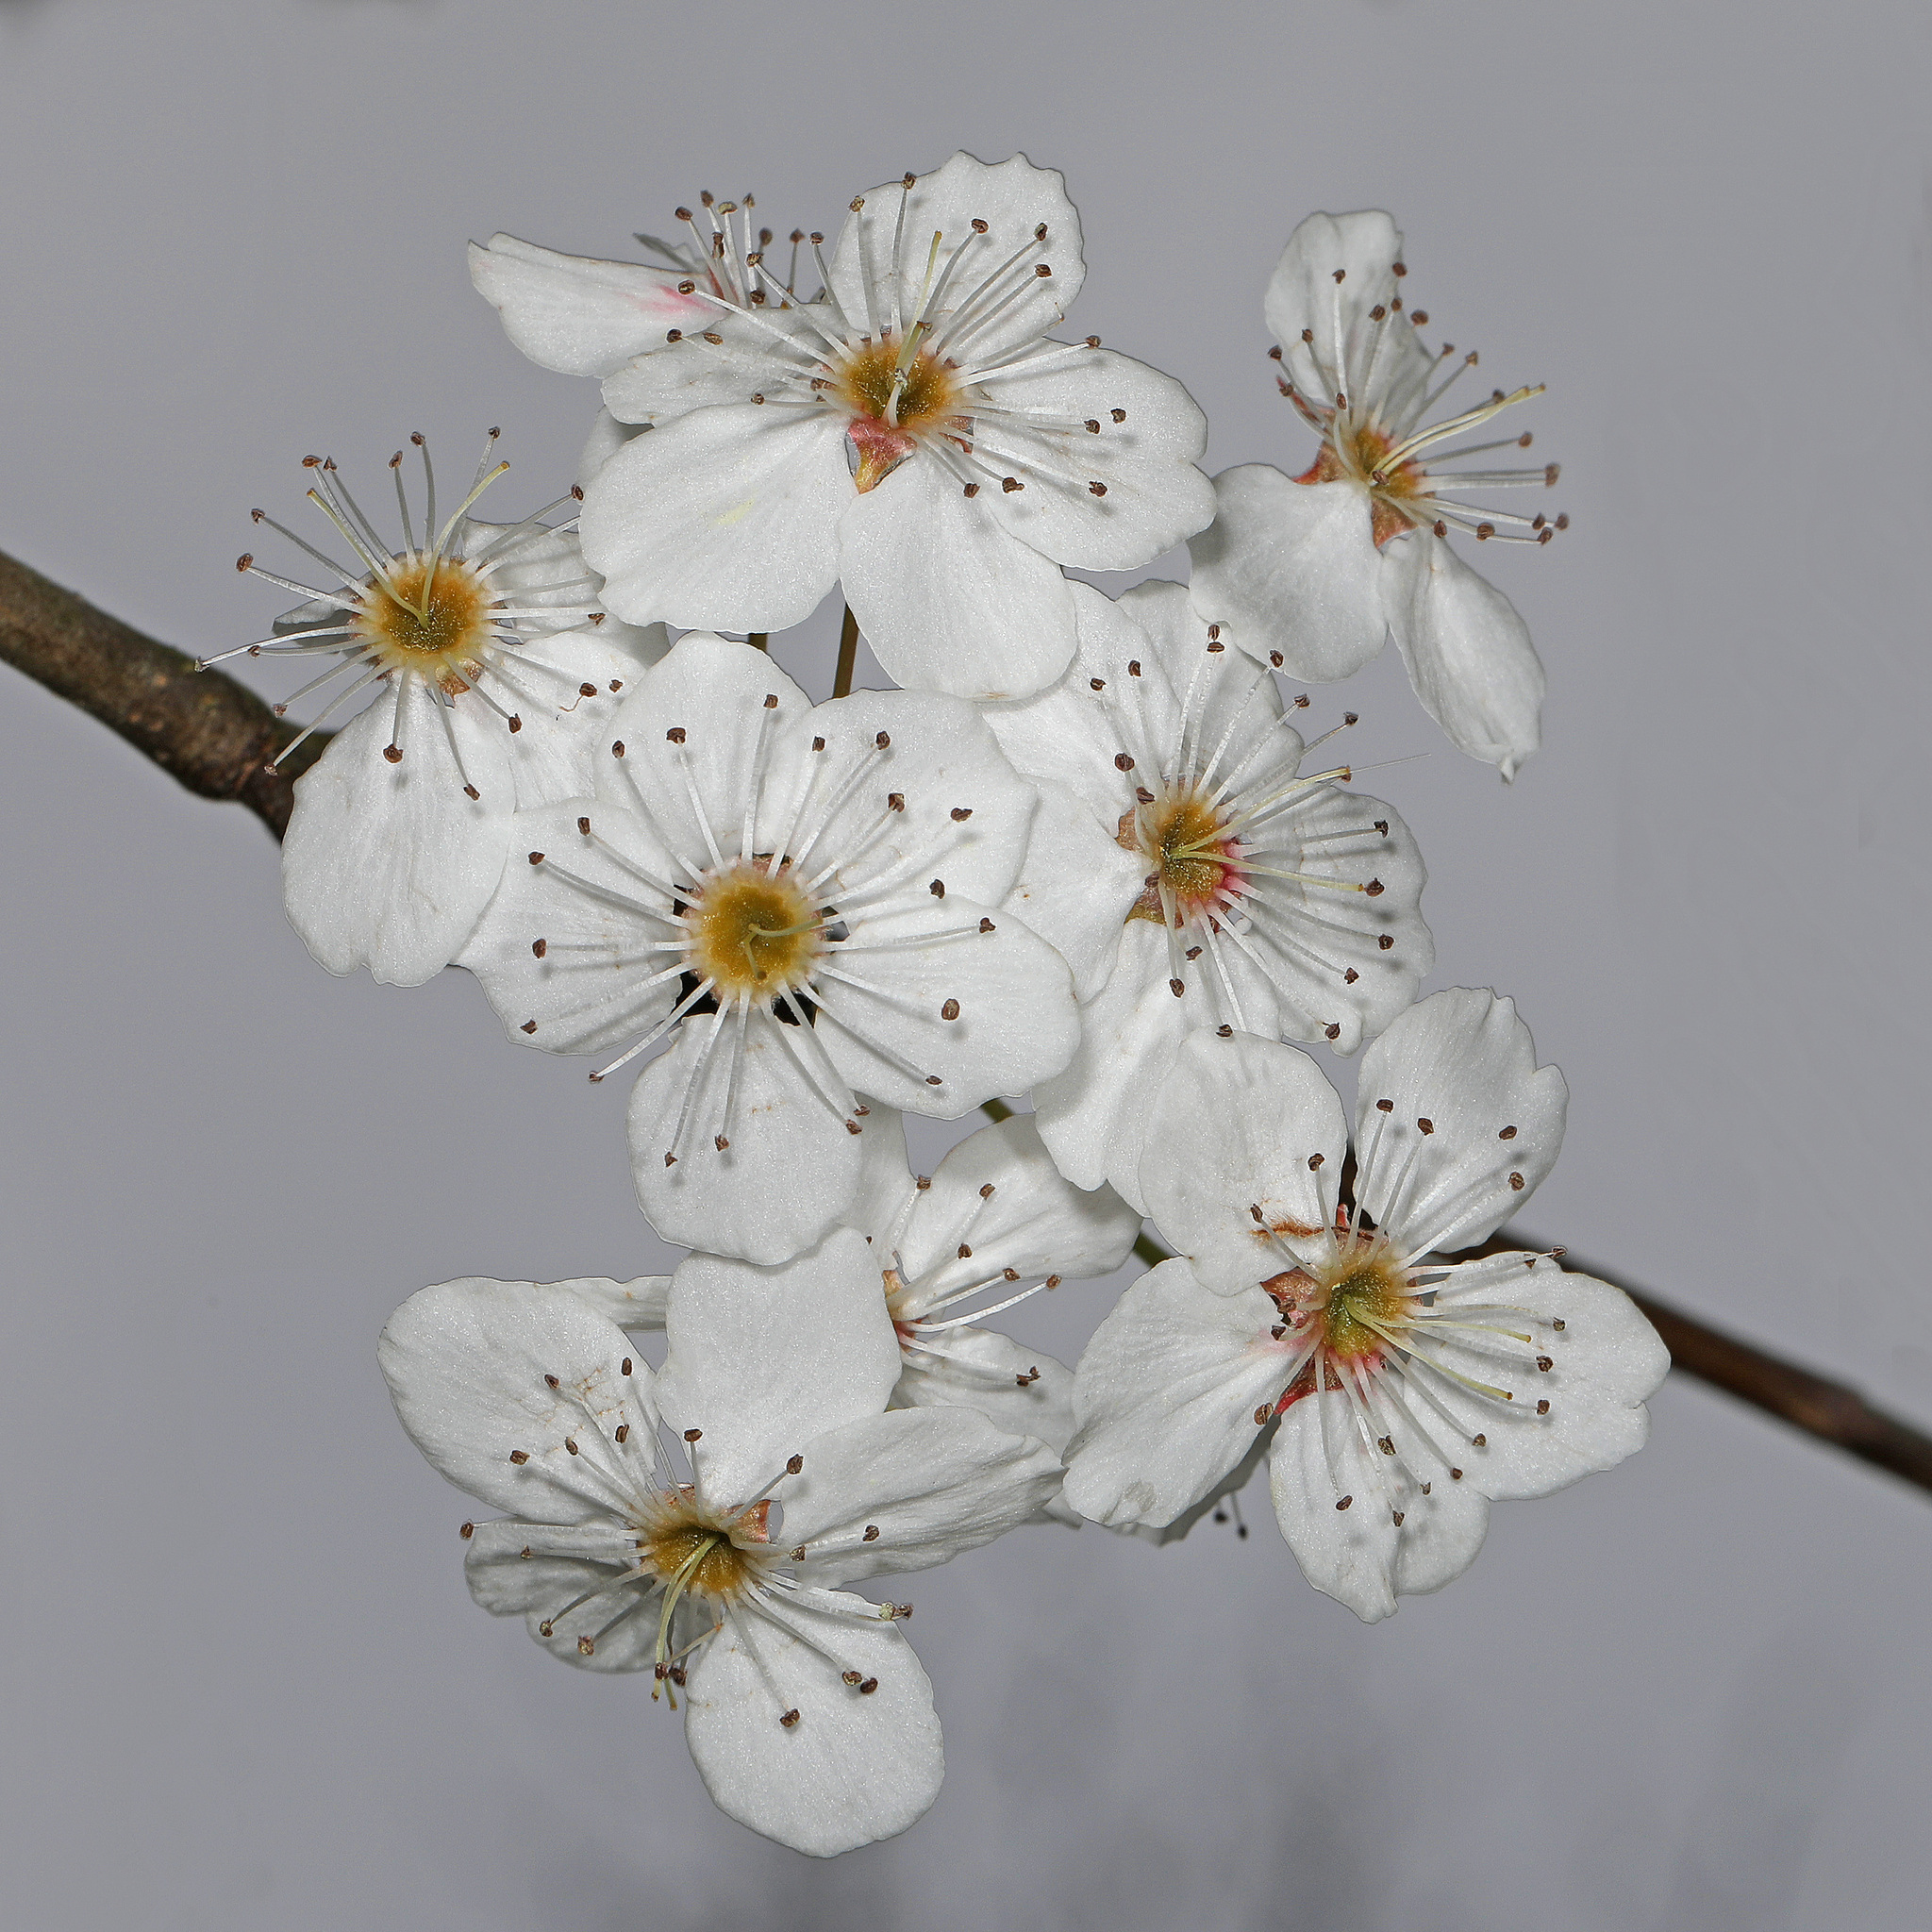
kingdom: Plantae
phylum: Tracheophyta
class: Magnoliopsida
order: Rosales
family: Rosaceae
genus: Pyrus
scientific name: Pyrus calleryana
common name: Callery pear
